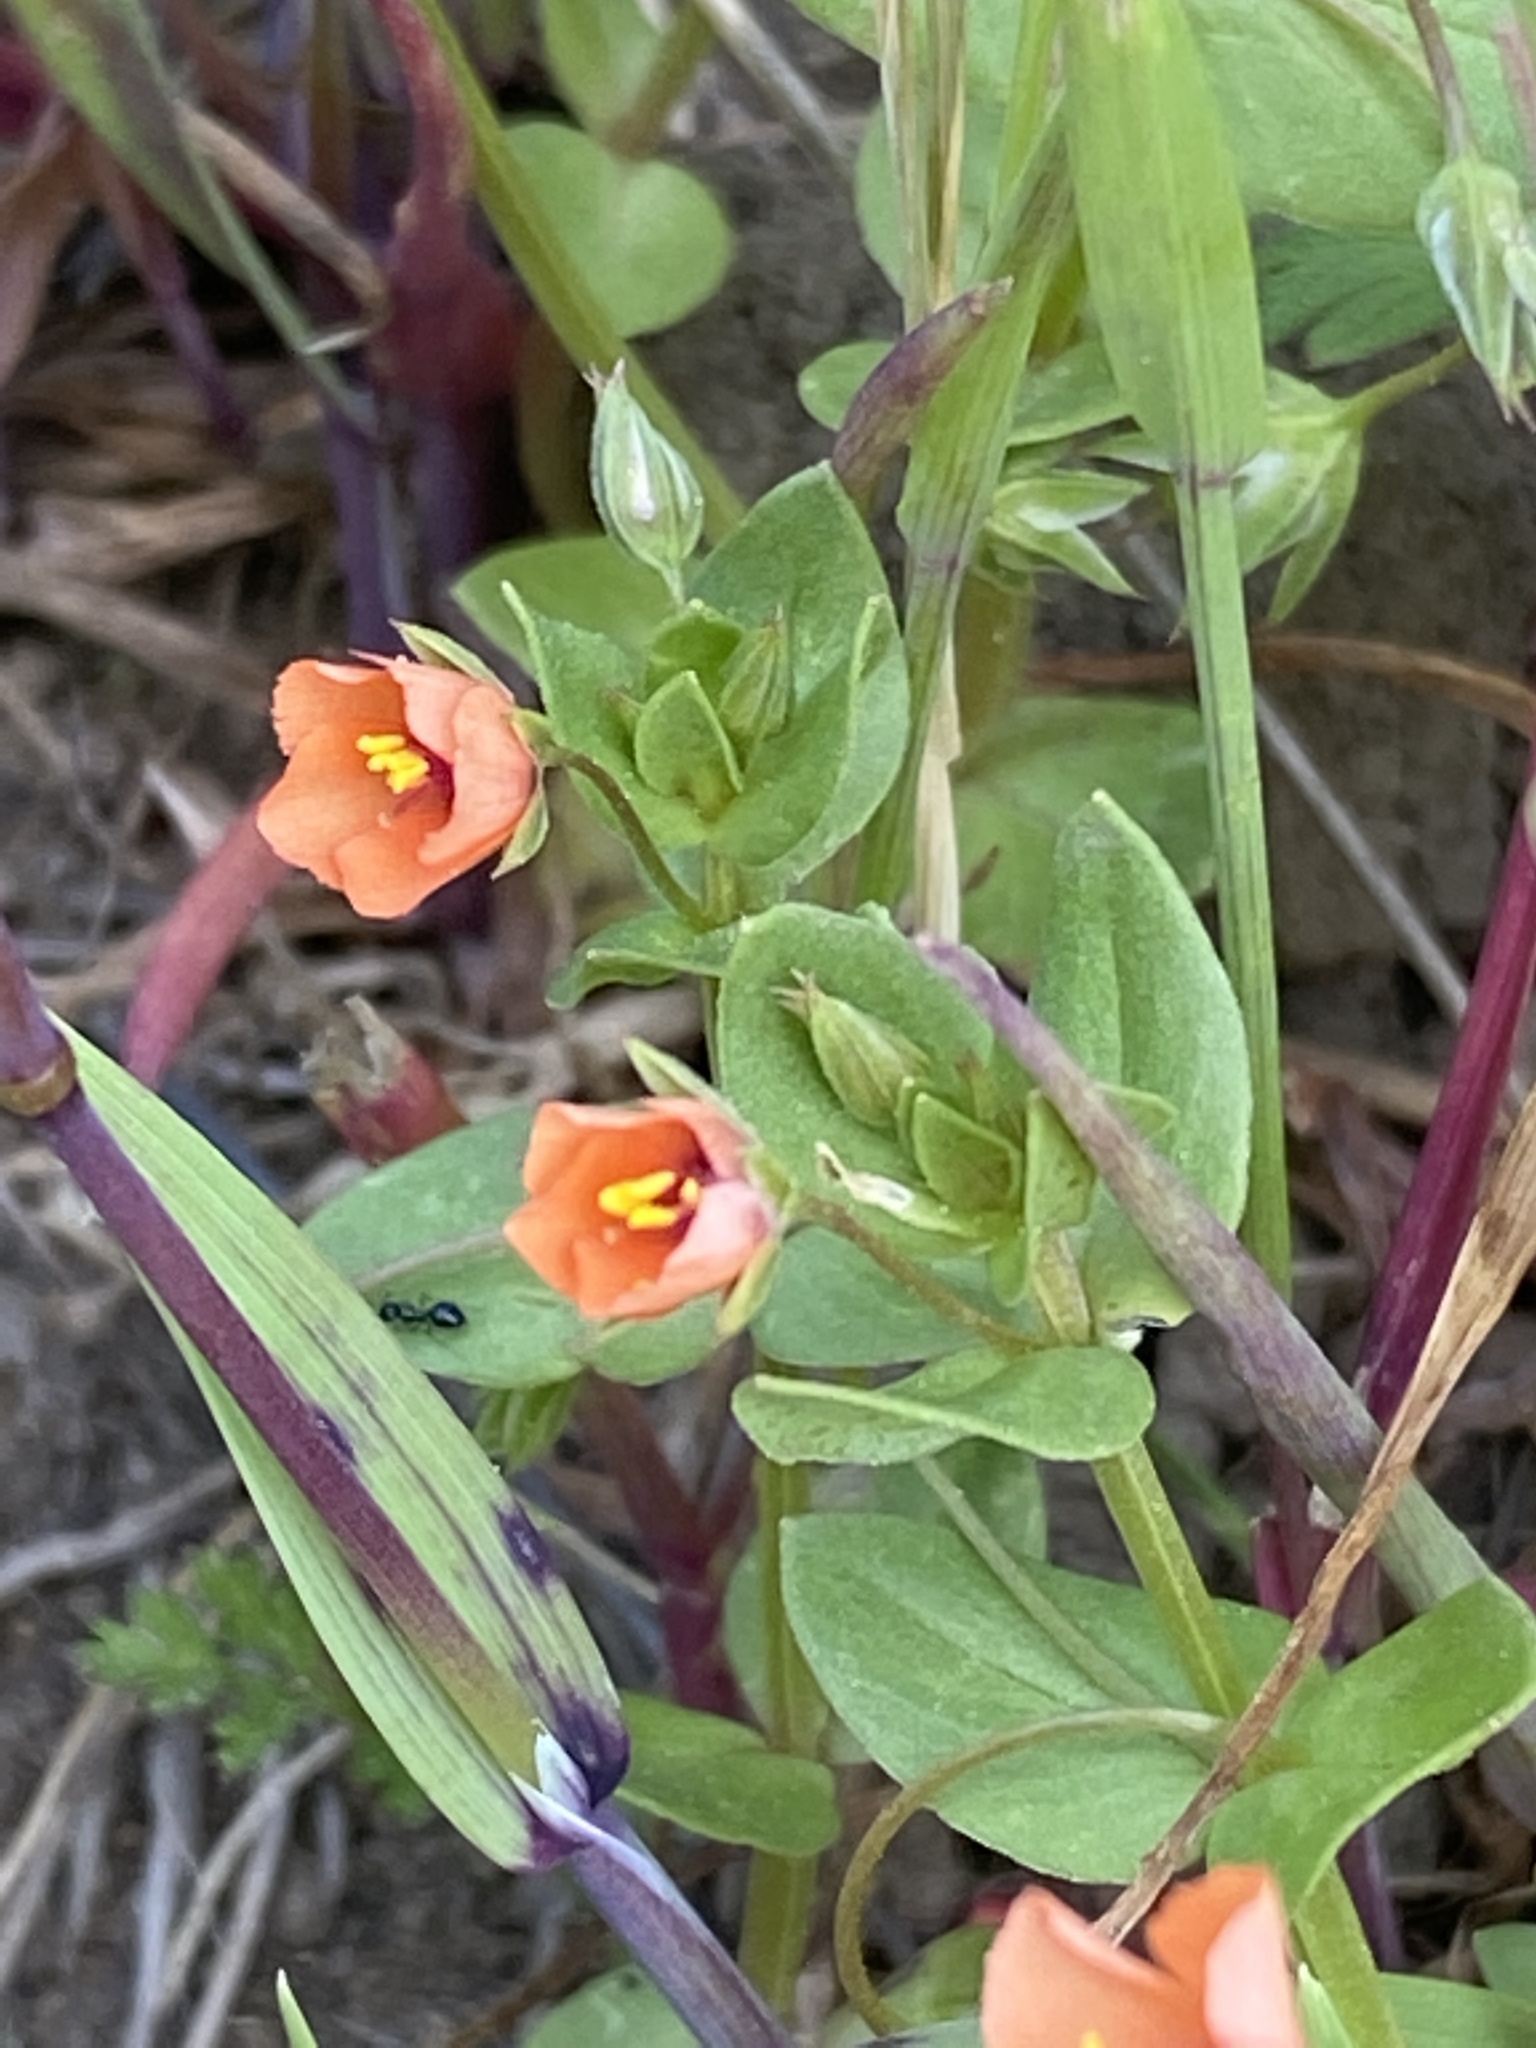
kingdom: Plantae
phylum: Tracheophyta
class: Magnoliopsida
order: Ericales
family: Primulaceae
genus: Lysimachia
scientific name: Lysimachia arvensis
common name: Scarlet pimpernel
